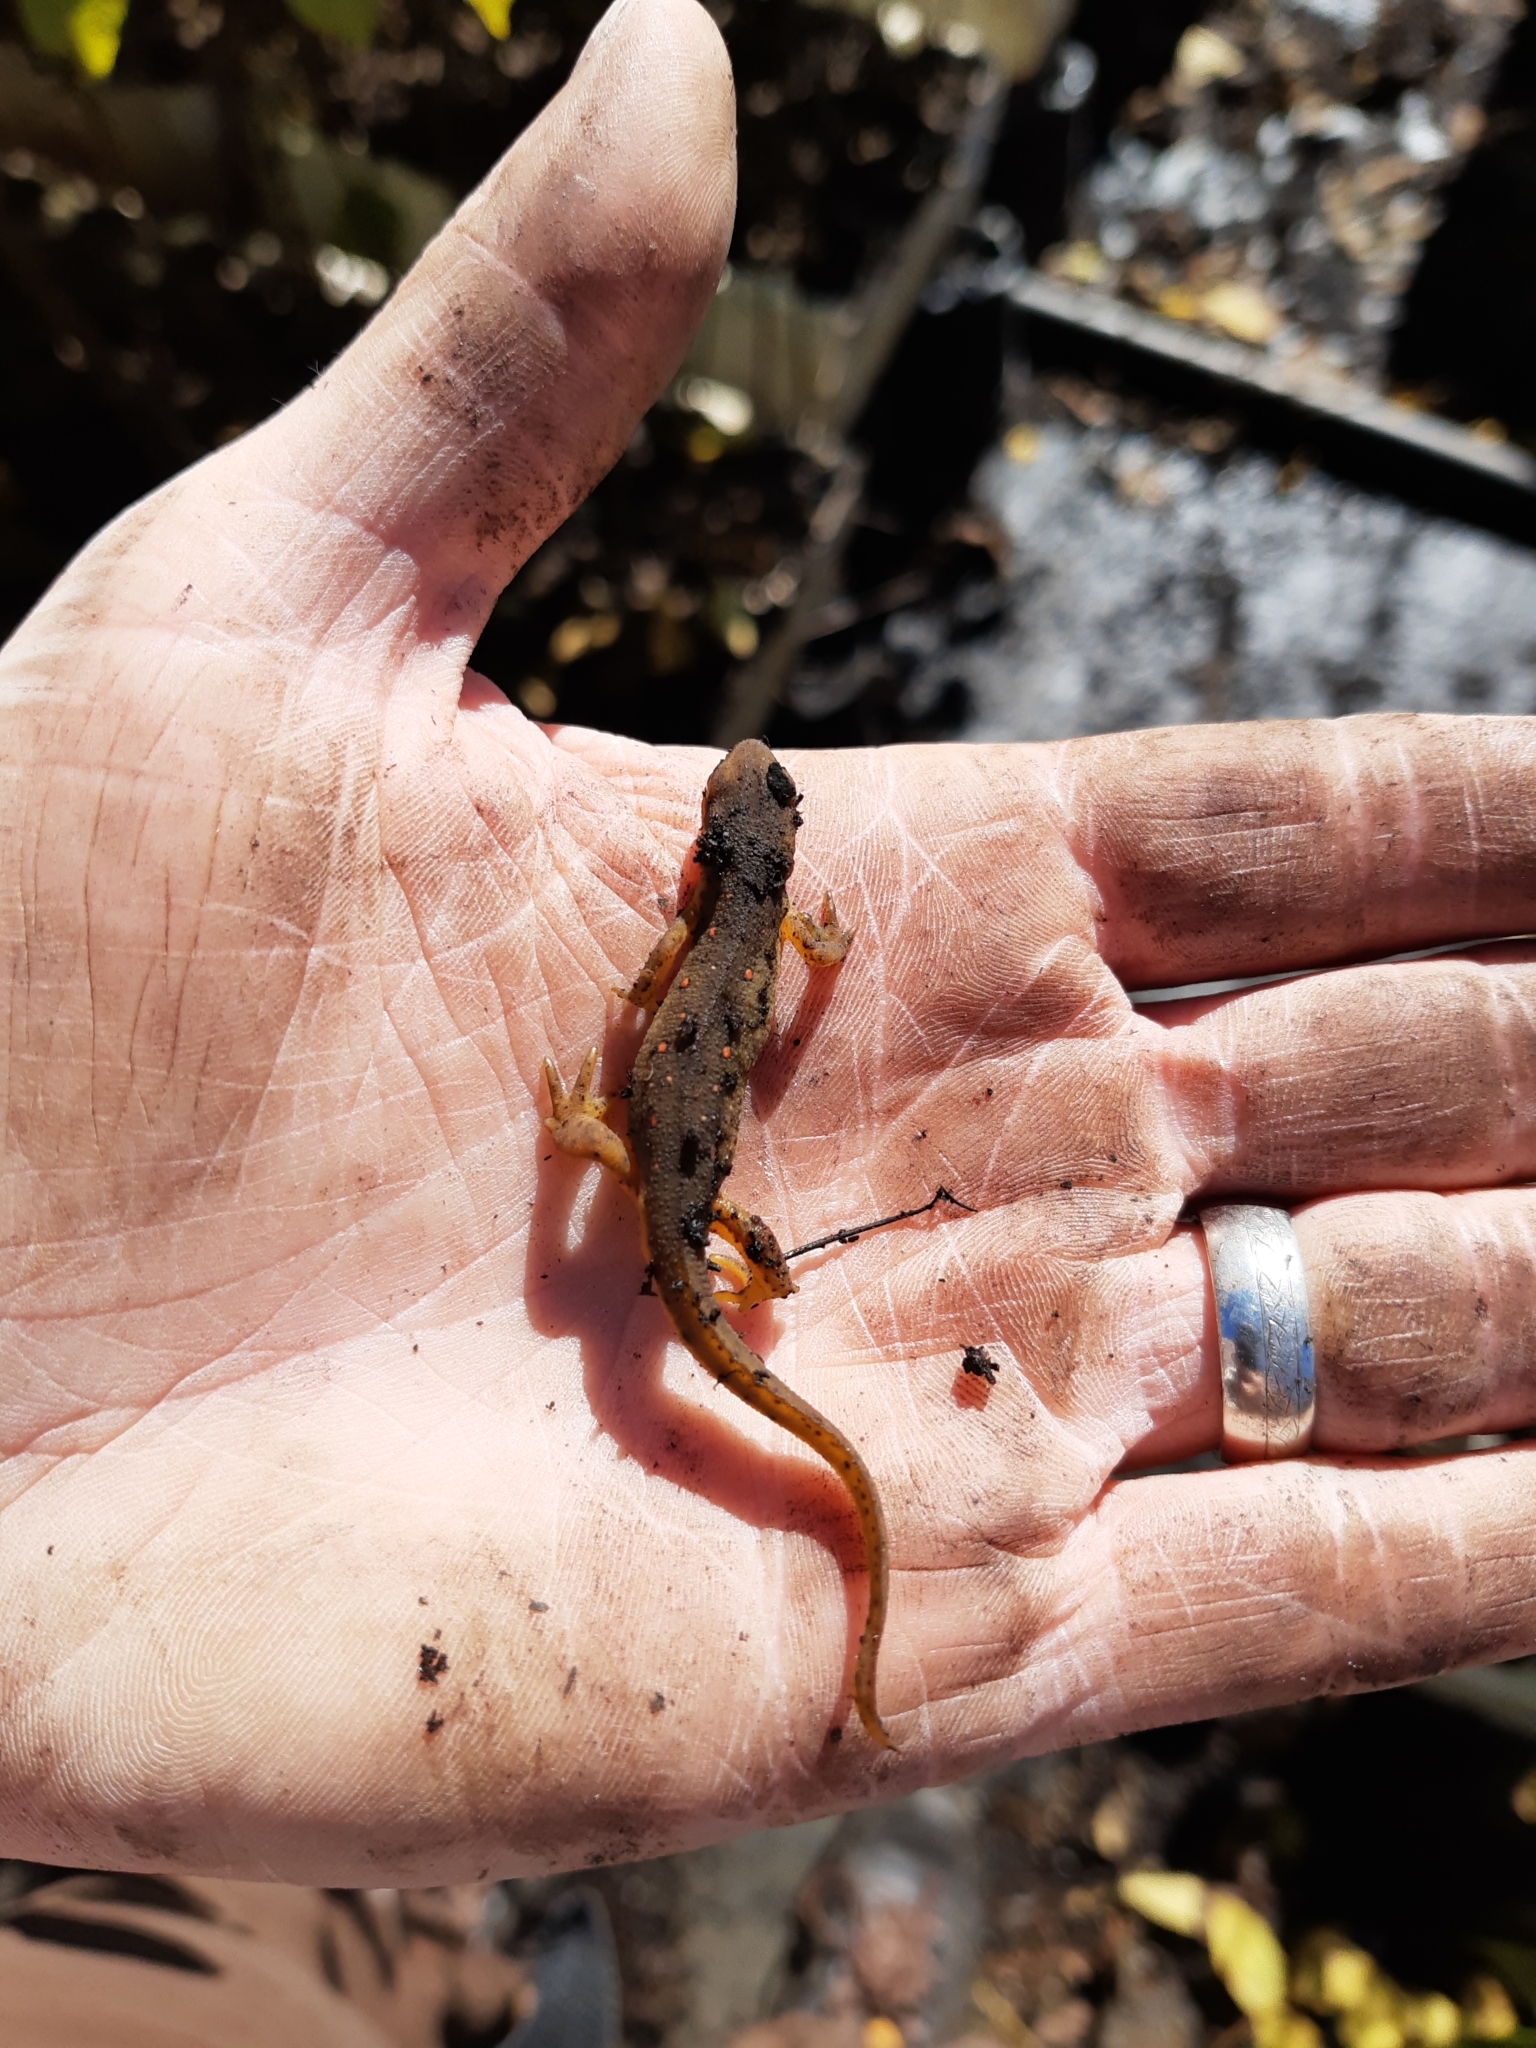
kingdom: Animalia
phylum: Chordata
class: Amphibia
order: Caudata
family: Salamandridae
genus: Notophthalmus
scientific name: Notophthalmus viridescens
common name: Eastern newt
